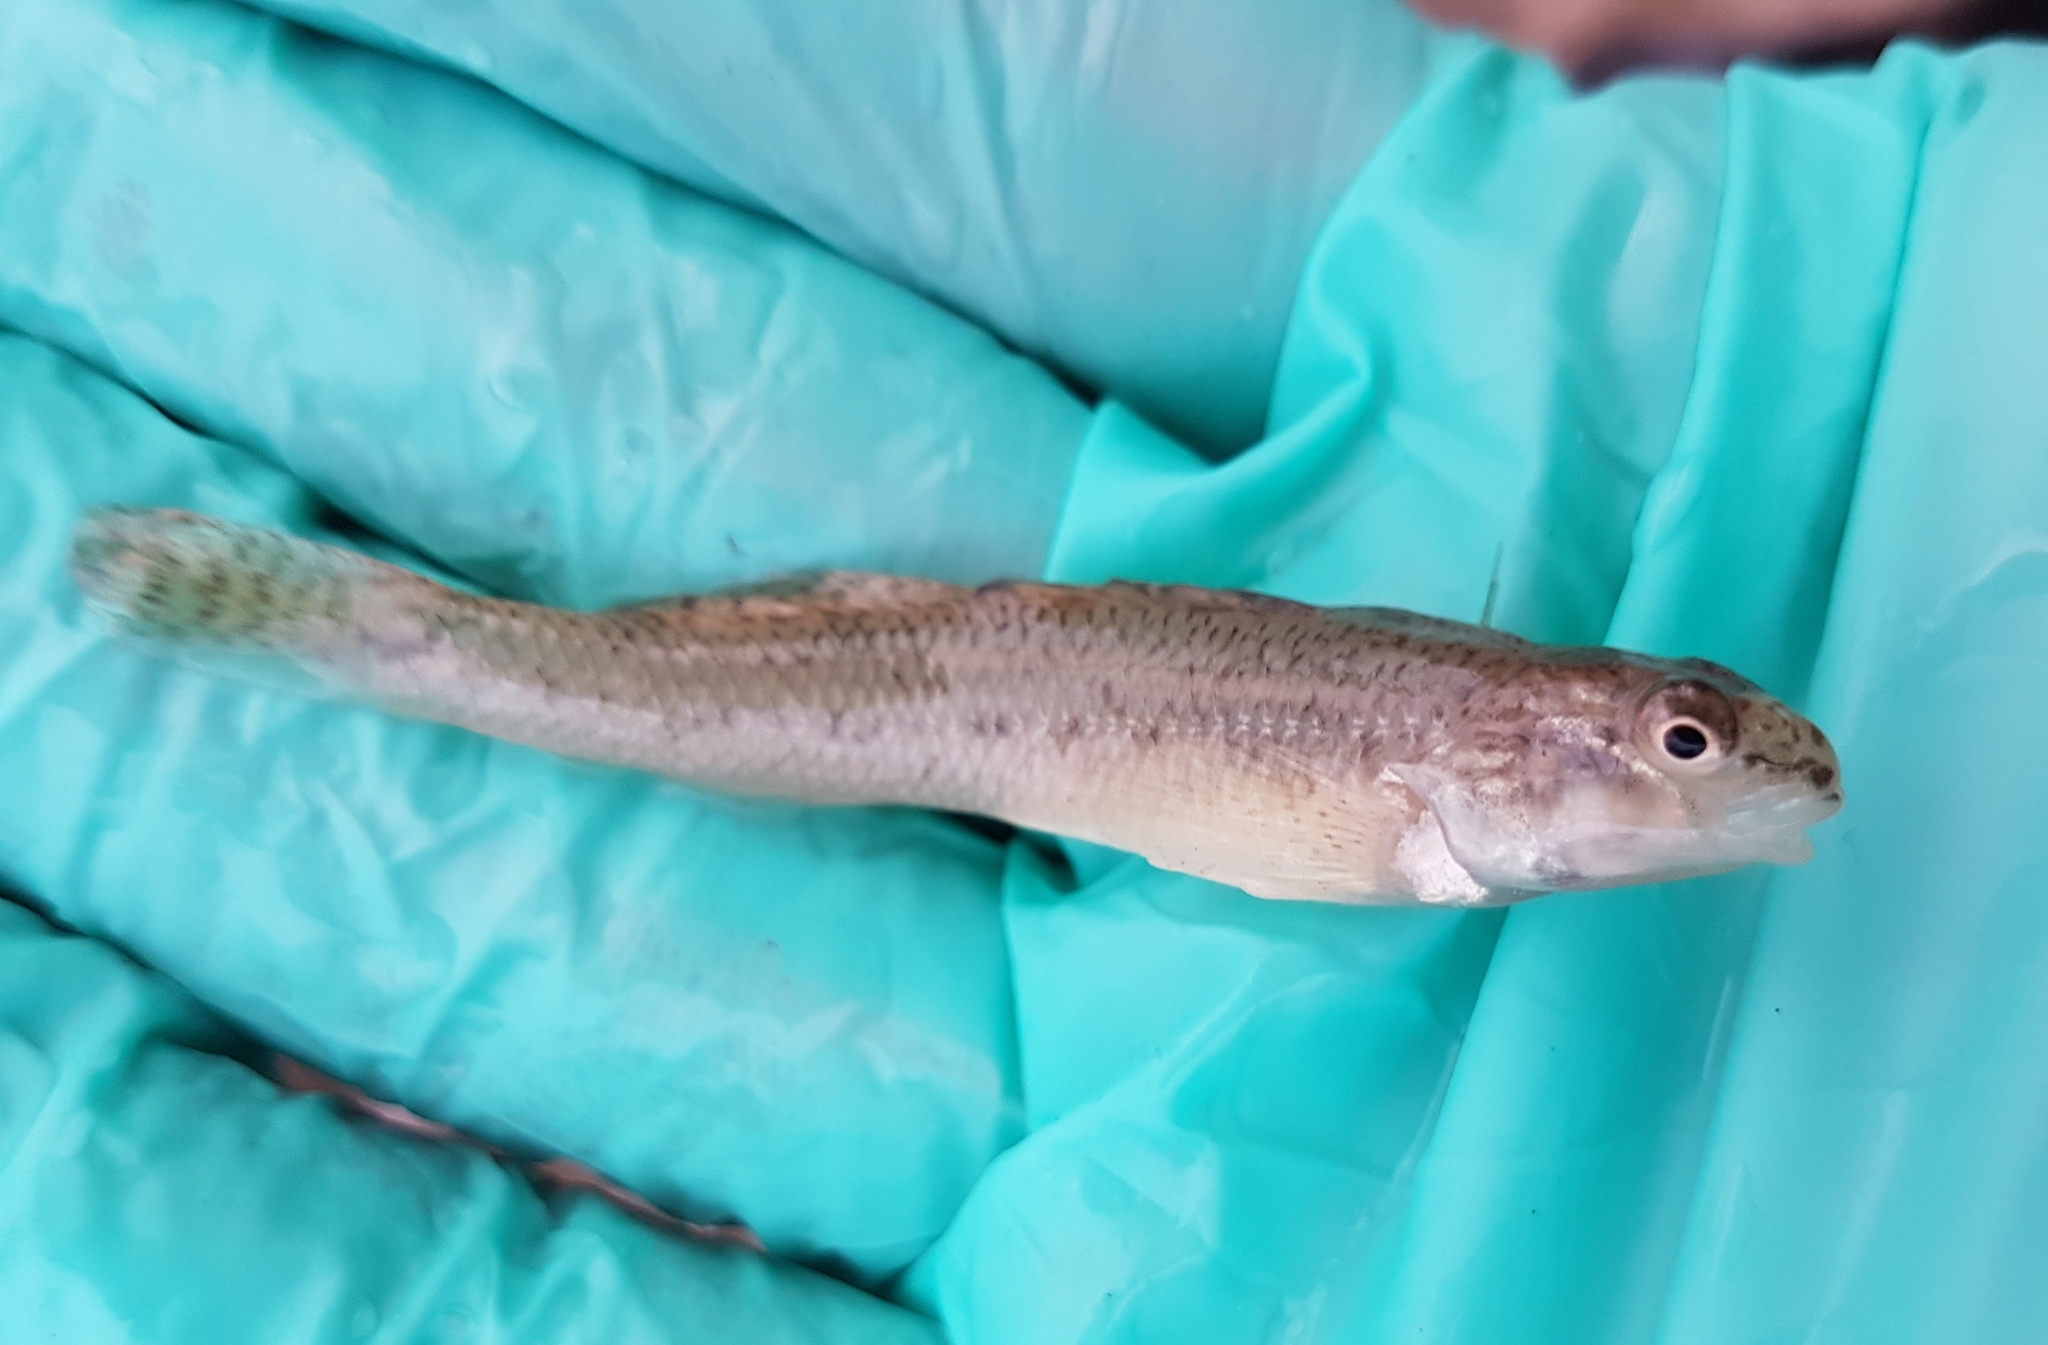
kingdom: Animalia
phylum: Chordata
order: Perciformes
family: Percidae
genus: Etheostoma
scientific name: Etheostoma nigrum
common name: Johnny darter
